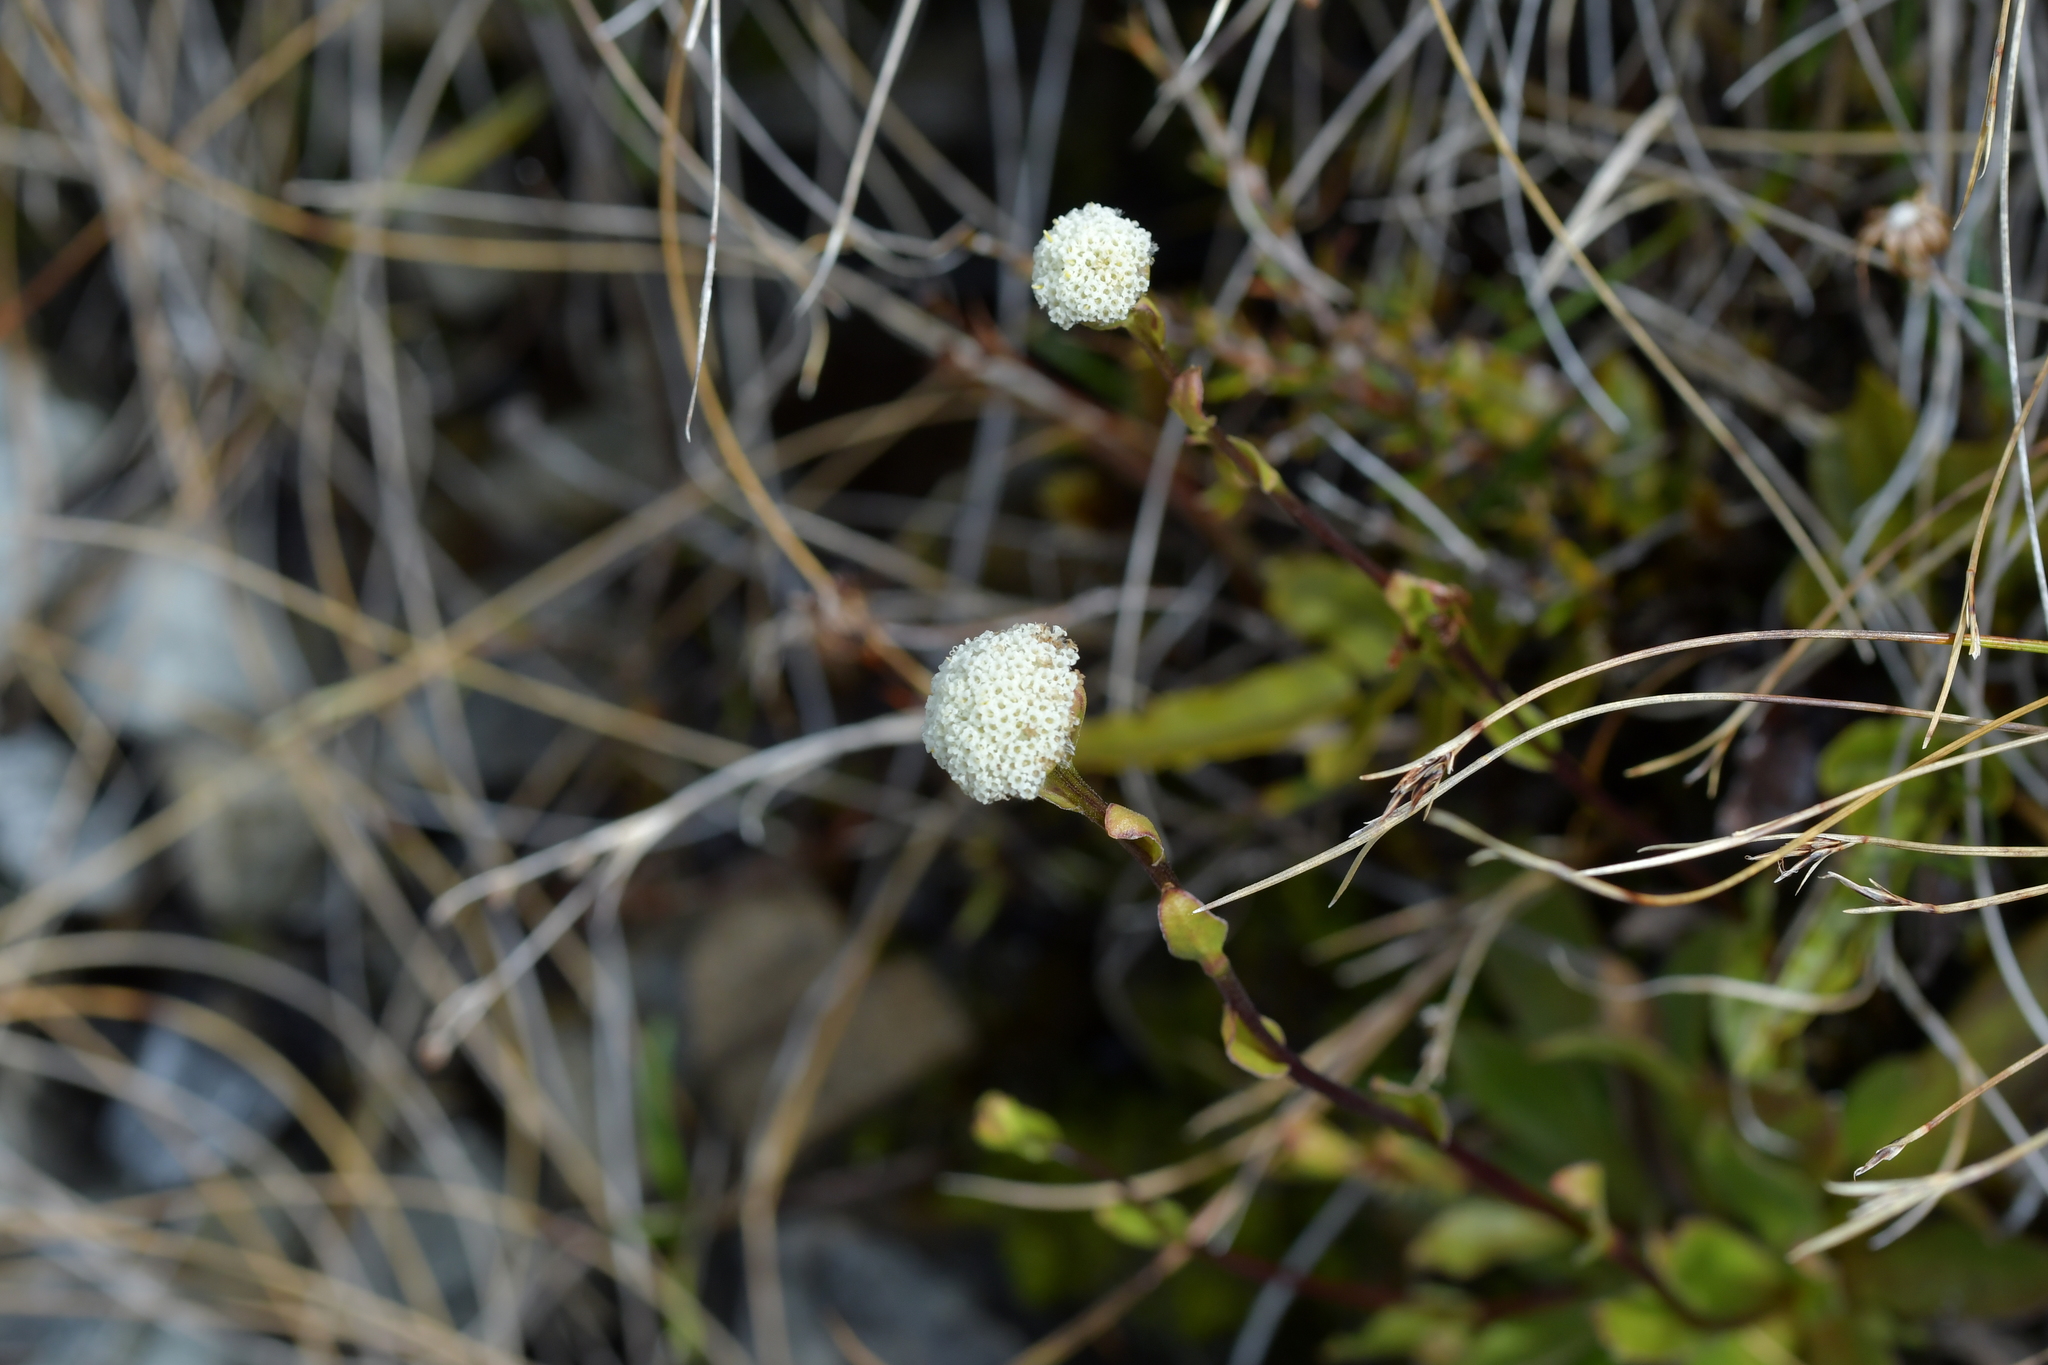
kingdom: Plantae
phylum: Tracheophyta
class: Magnoliopsida
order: Asterales
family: Asteraceae
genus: Craspedia
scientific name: Craspedia uniflora
